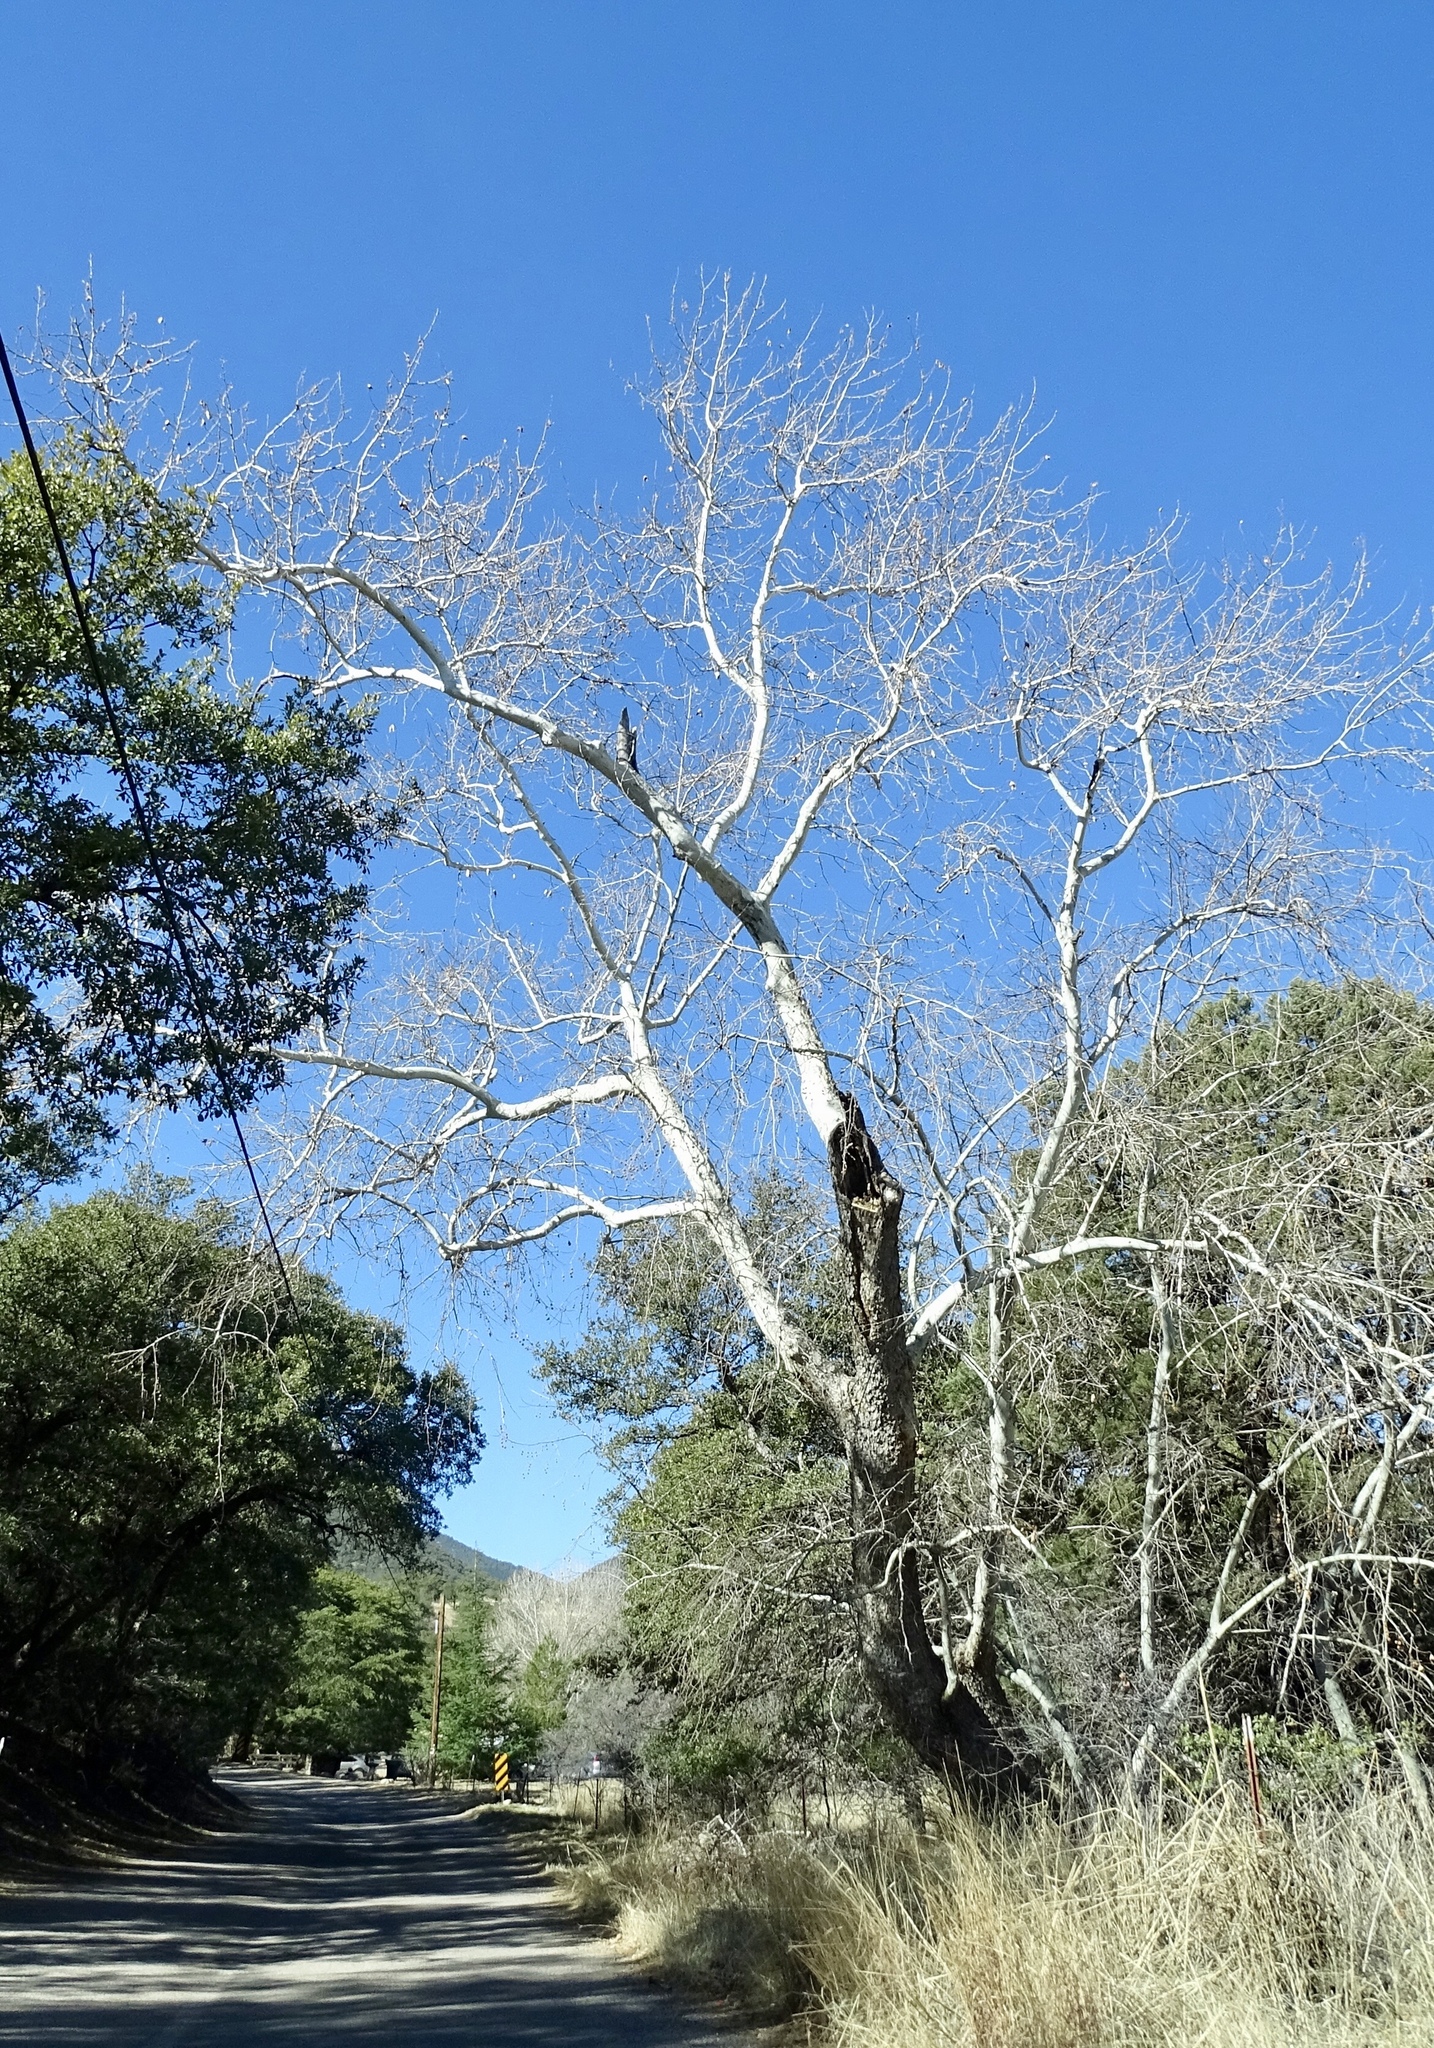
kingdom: Plantae
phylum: Tracheophyta
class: Magnoliopsida
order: Proteales
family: Platanaceae
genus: Platanus
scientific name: Platanus wrightii
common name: Arizona sycamore
